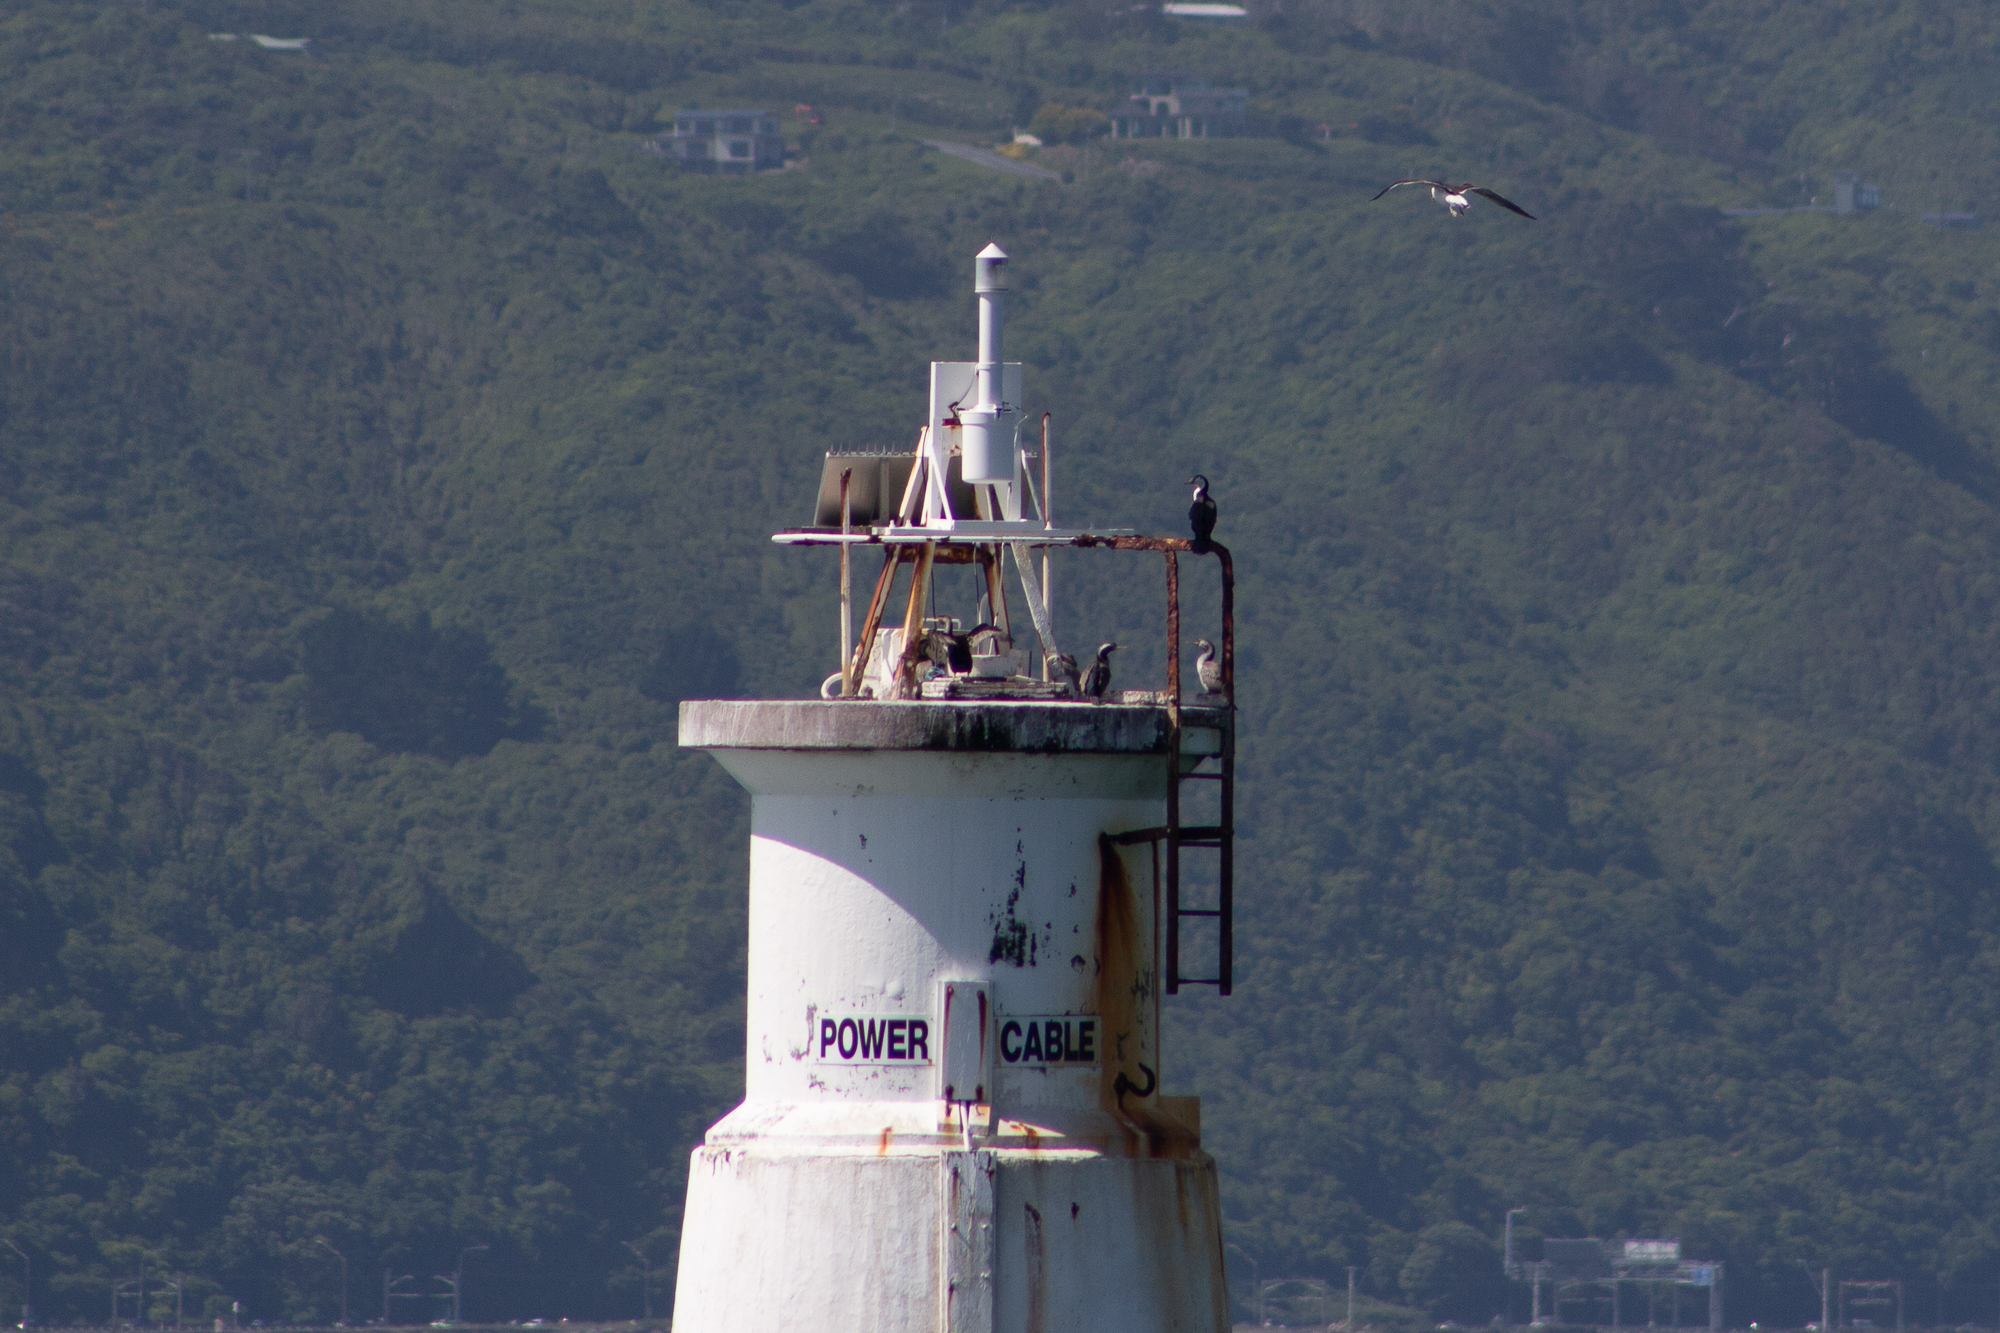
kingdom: Animalia
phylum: Chordata
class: Aves
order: Suliformes
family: Phalacrocoracidae
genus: Phalacrocorax
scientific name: Phalacrocorax punctatus
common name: Spotted shag
